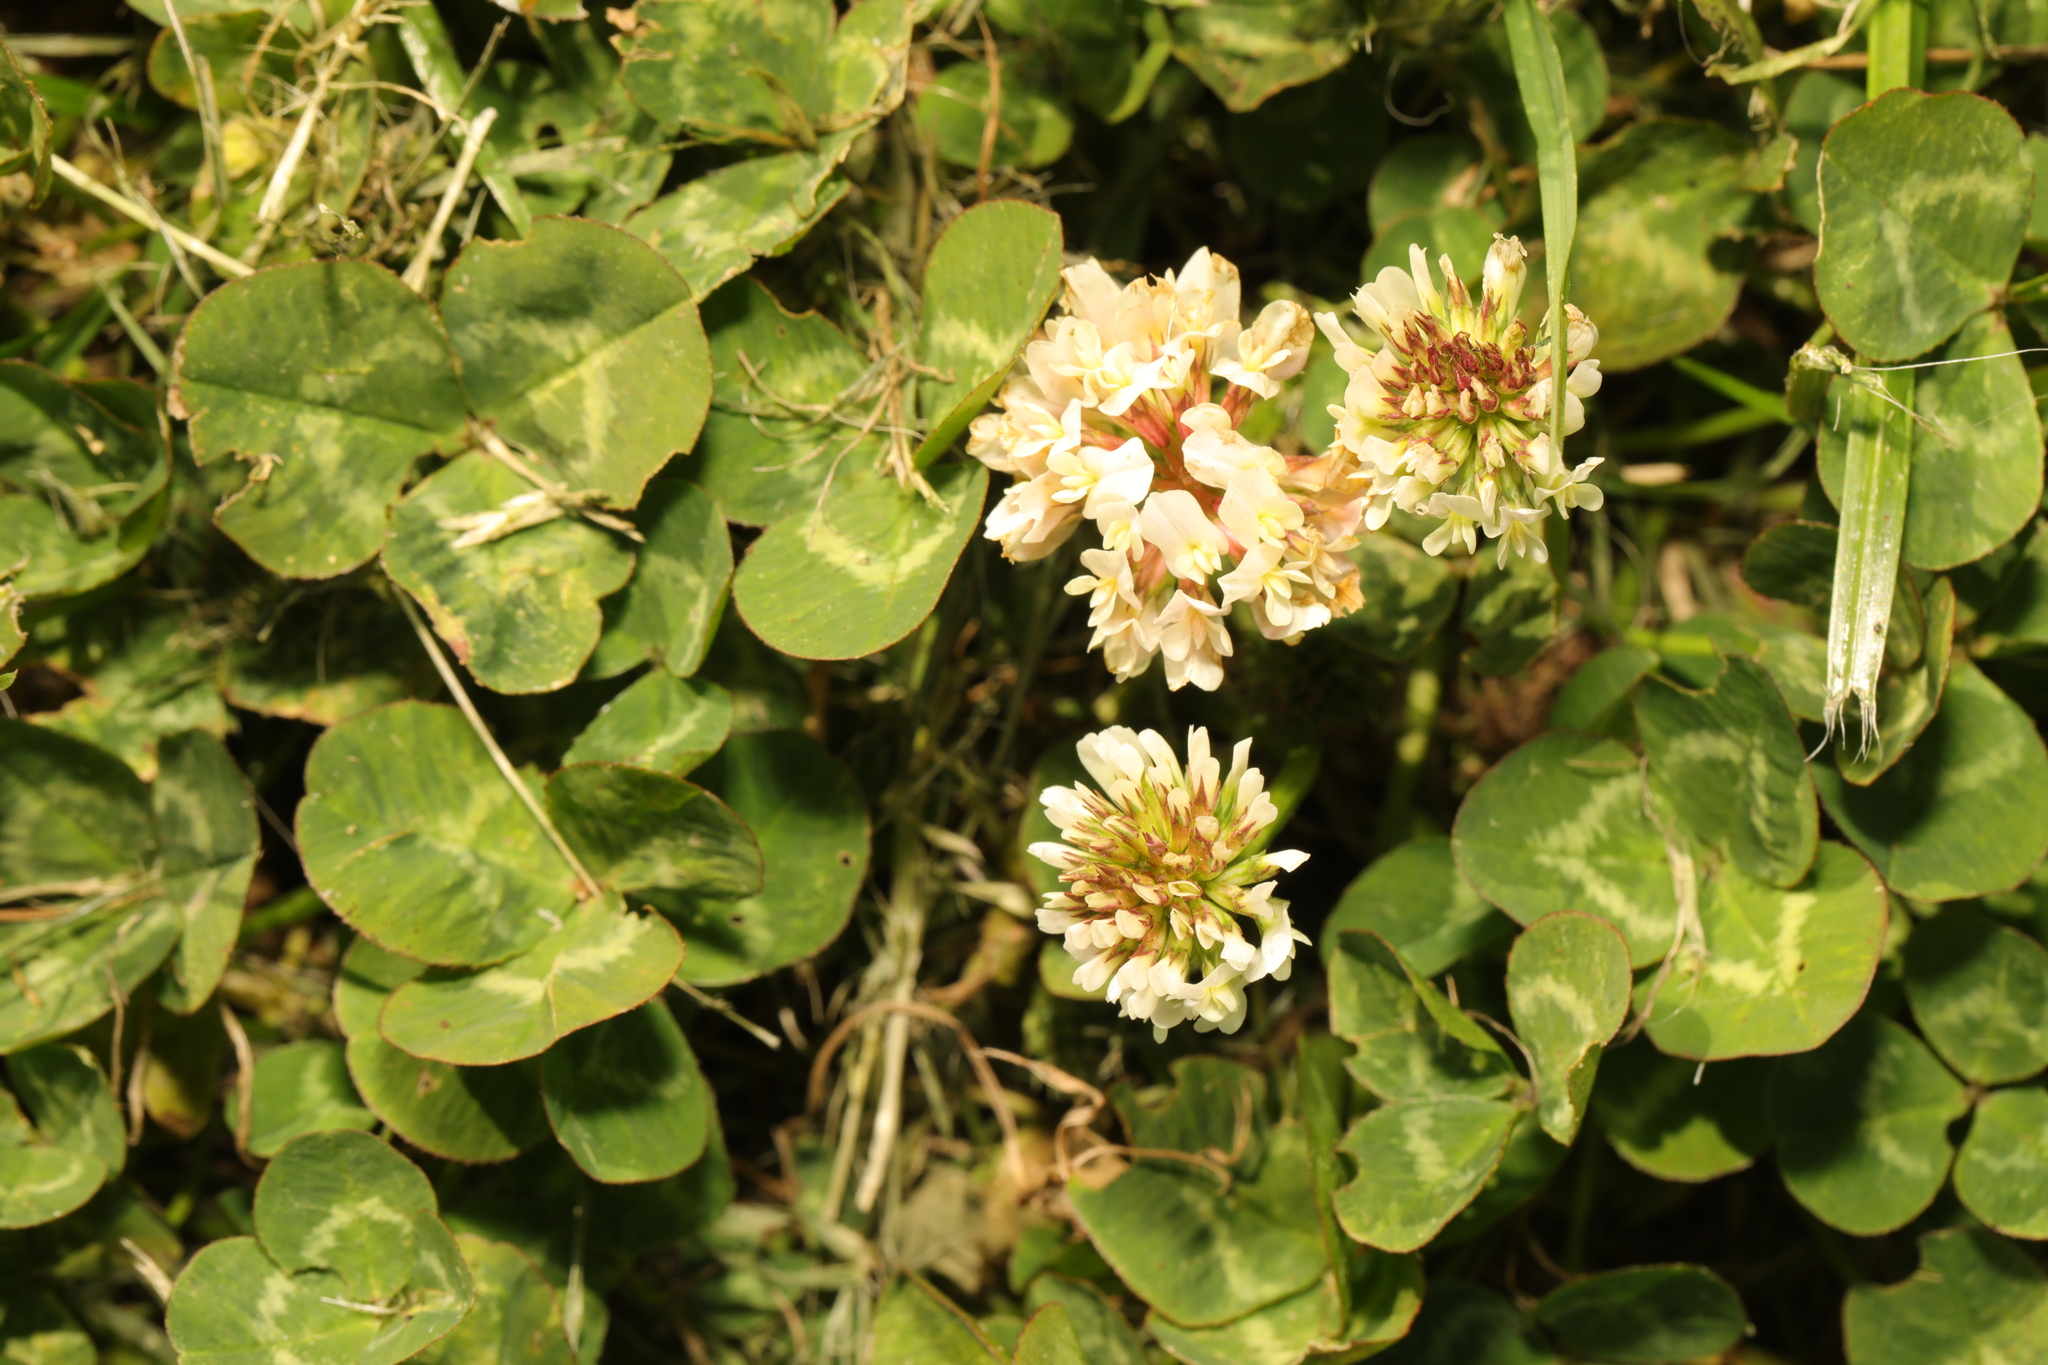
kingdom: Plantae
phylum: Tracheophyta
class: Magnoliopsida
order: Fabales
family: Fabaceae
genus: Trifolium
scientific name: Trifolium repens
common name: White clover
